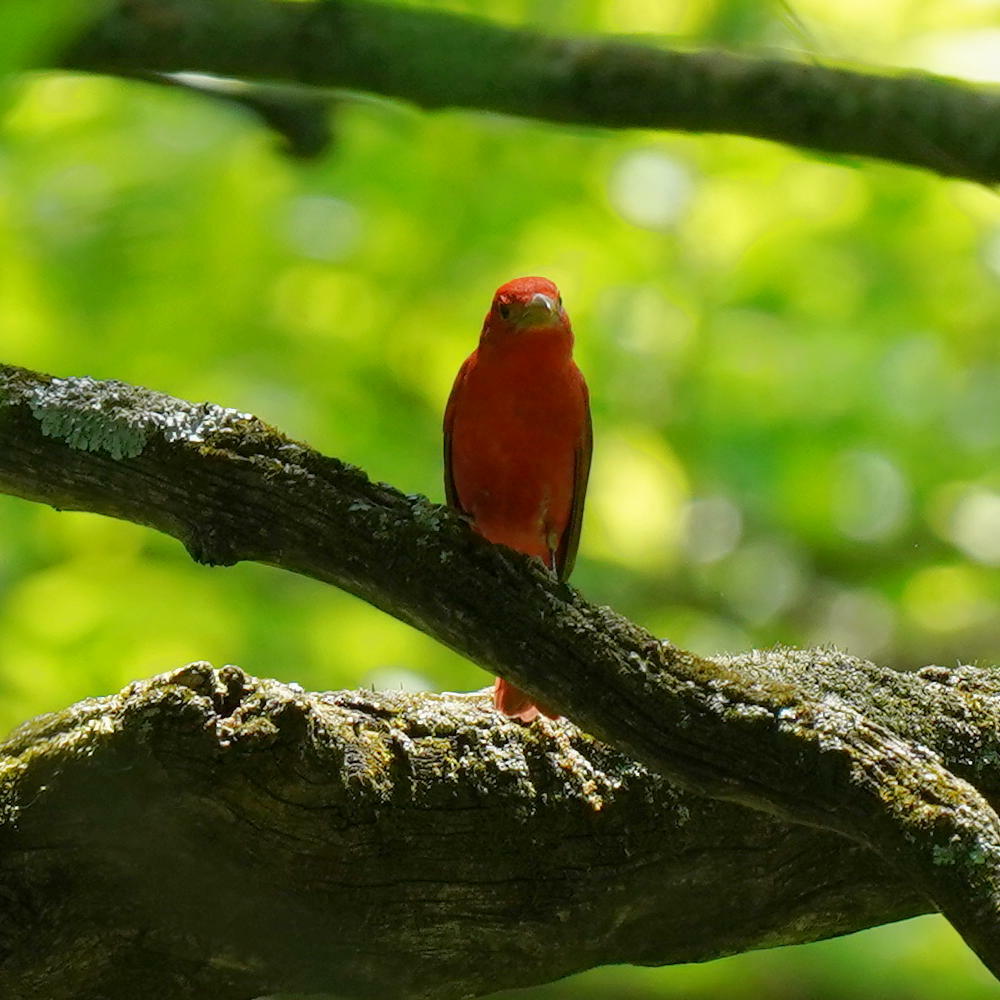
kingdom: Animalia
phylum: Chordata
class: Aves
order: Passeriformes
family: Cardinalidae
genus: Piranga
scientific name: Piranga rubra
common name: Summer tanager
